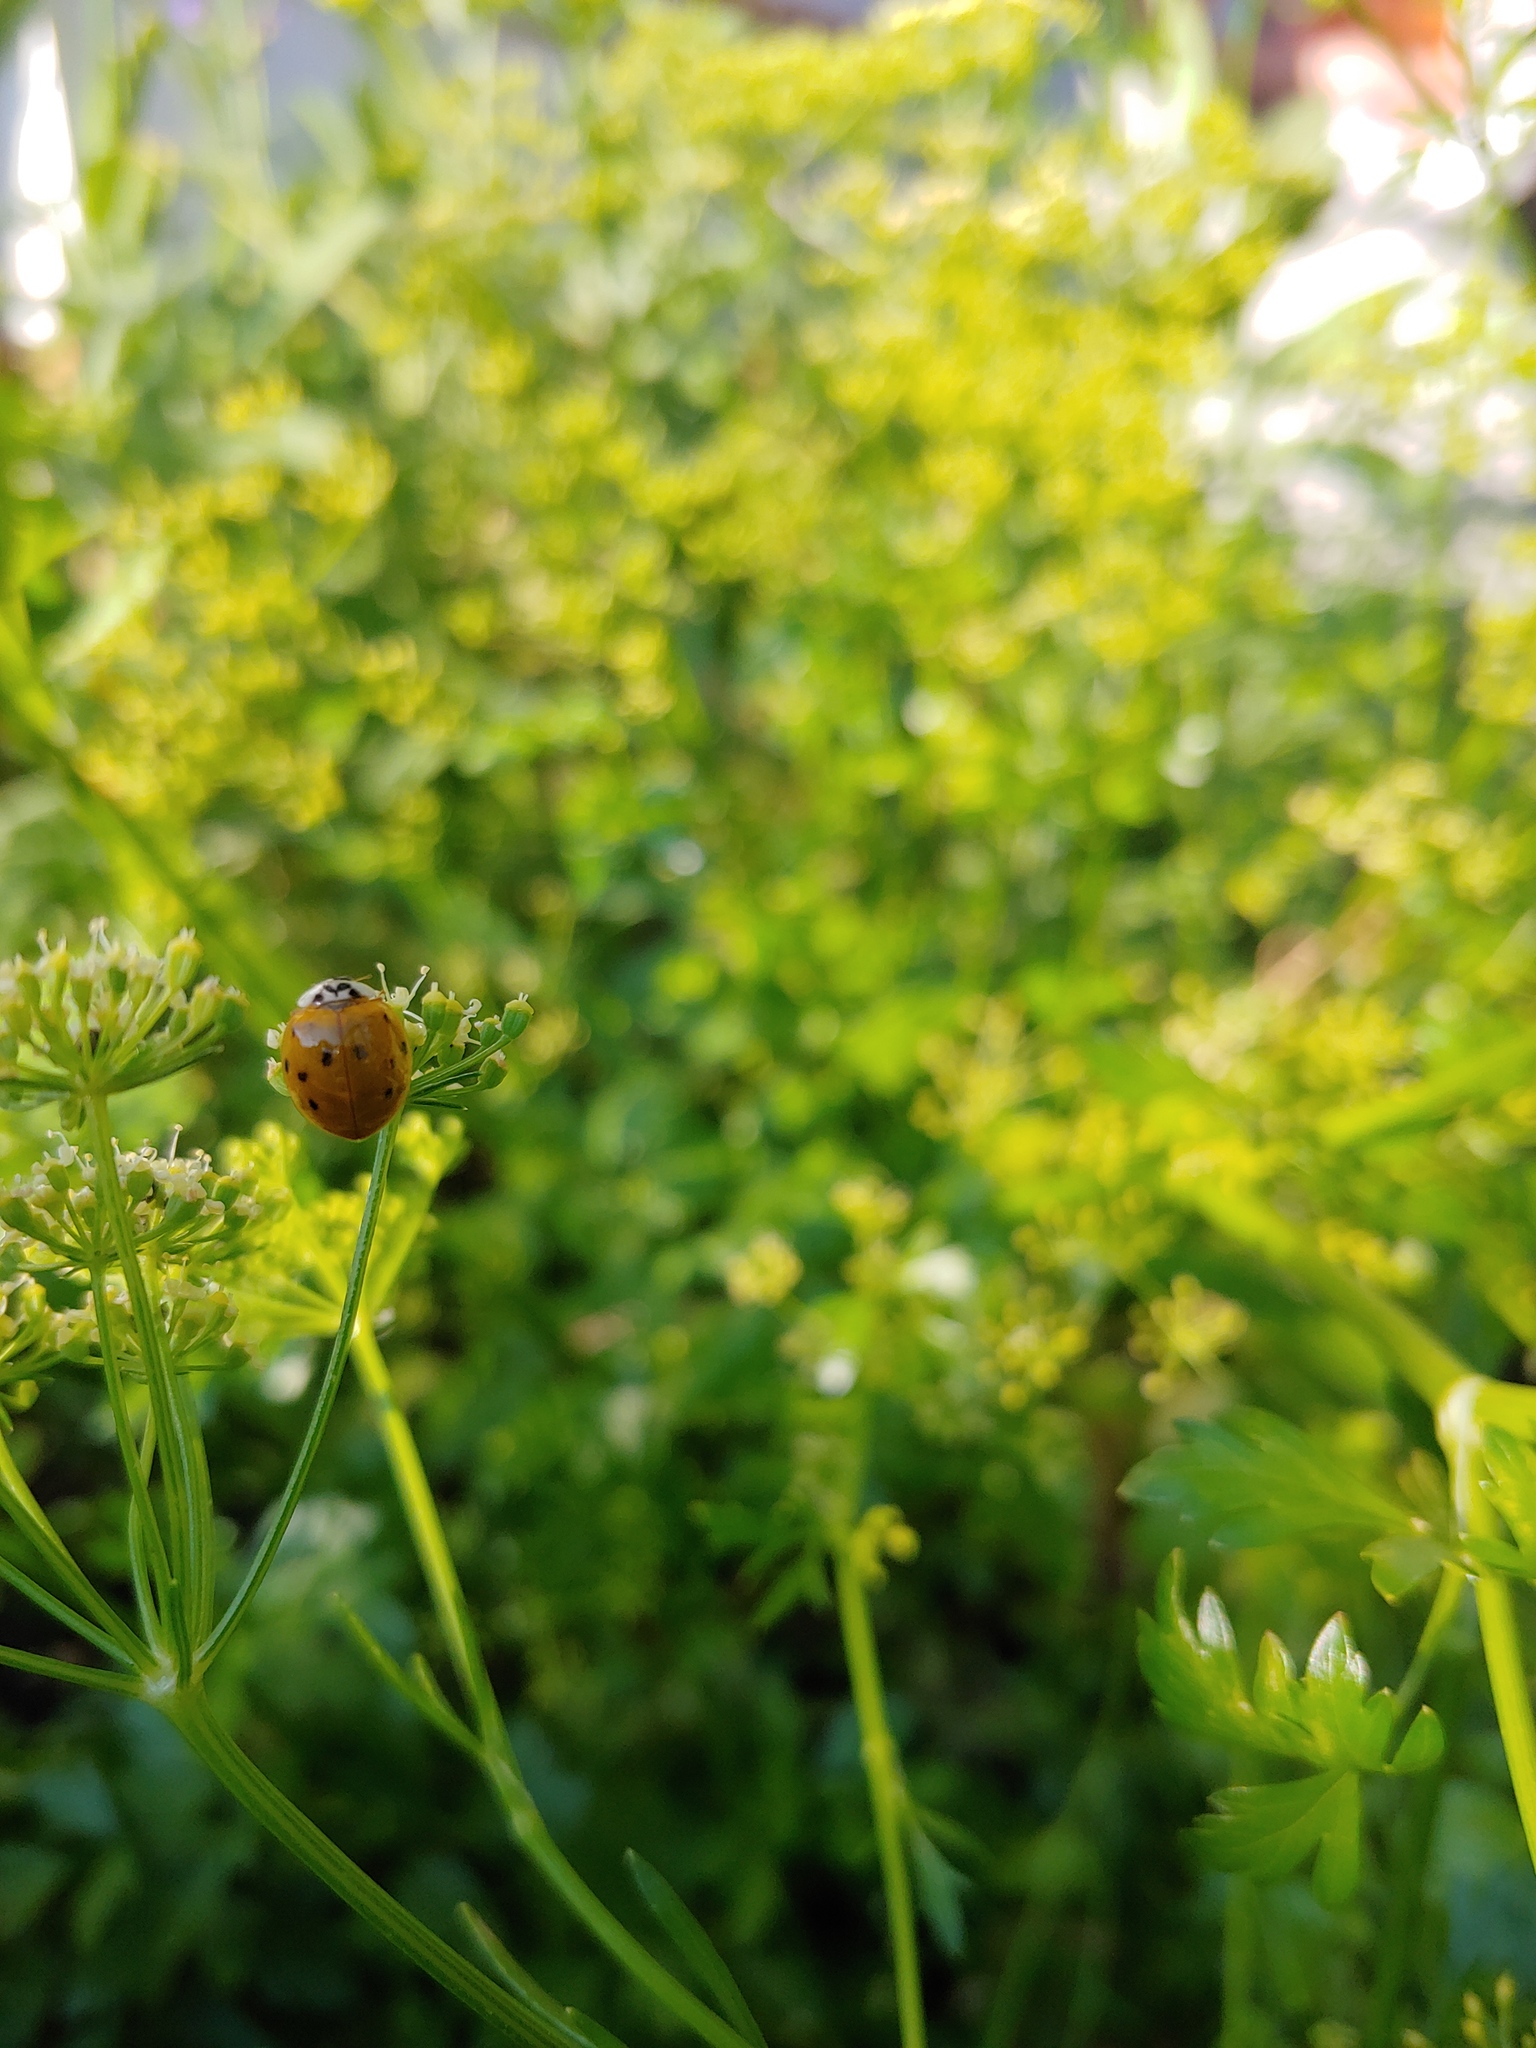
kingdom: Animalia
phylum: Arthropoda
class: Insecta
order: Coleoptera
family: Coccinellidae
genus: Harmonia
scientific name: Harmonia axyridis
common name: Harlequin ladybird
